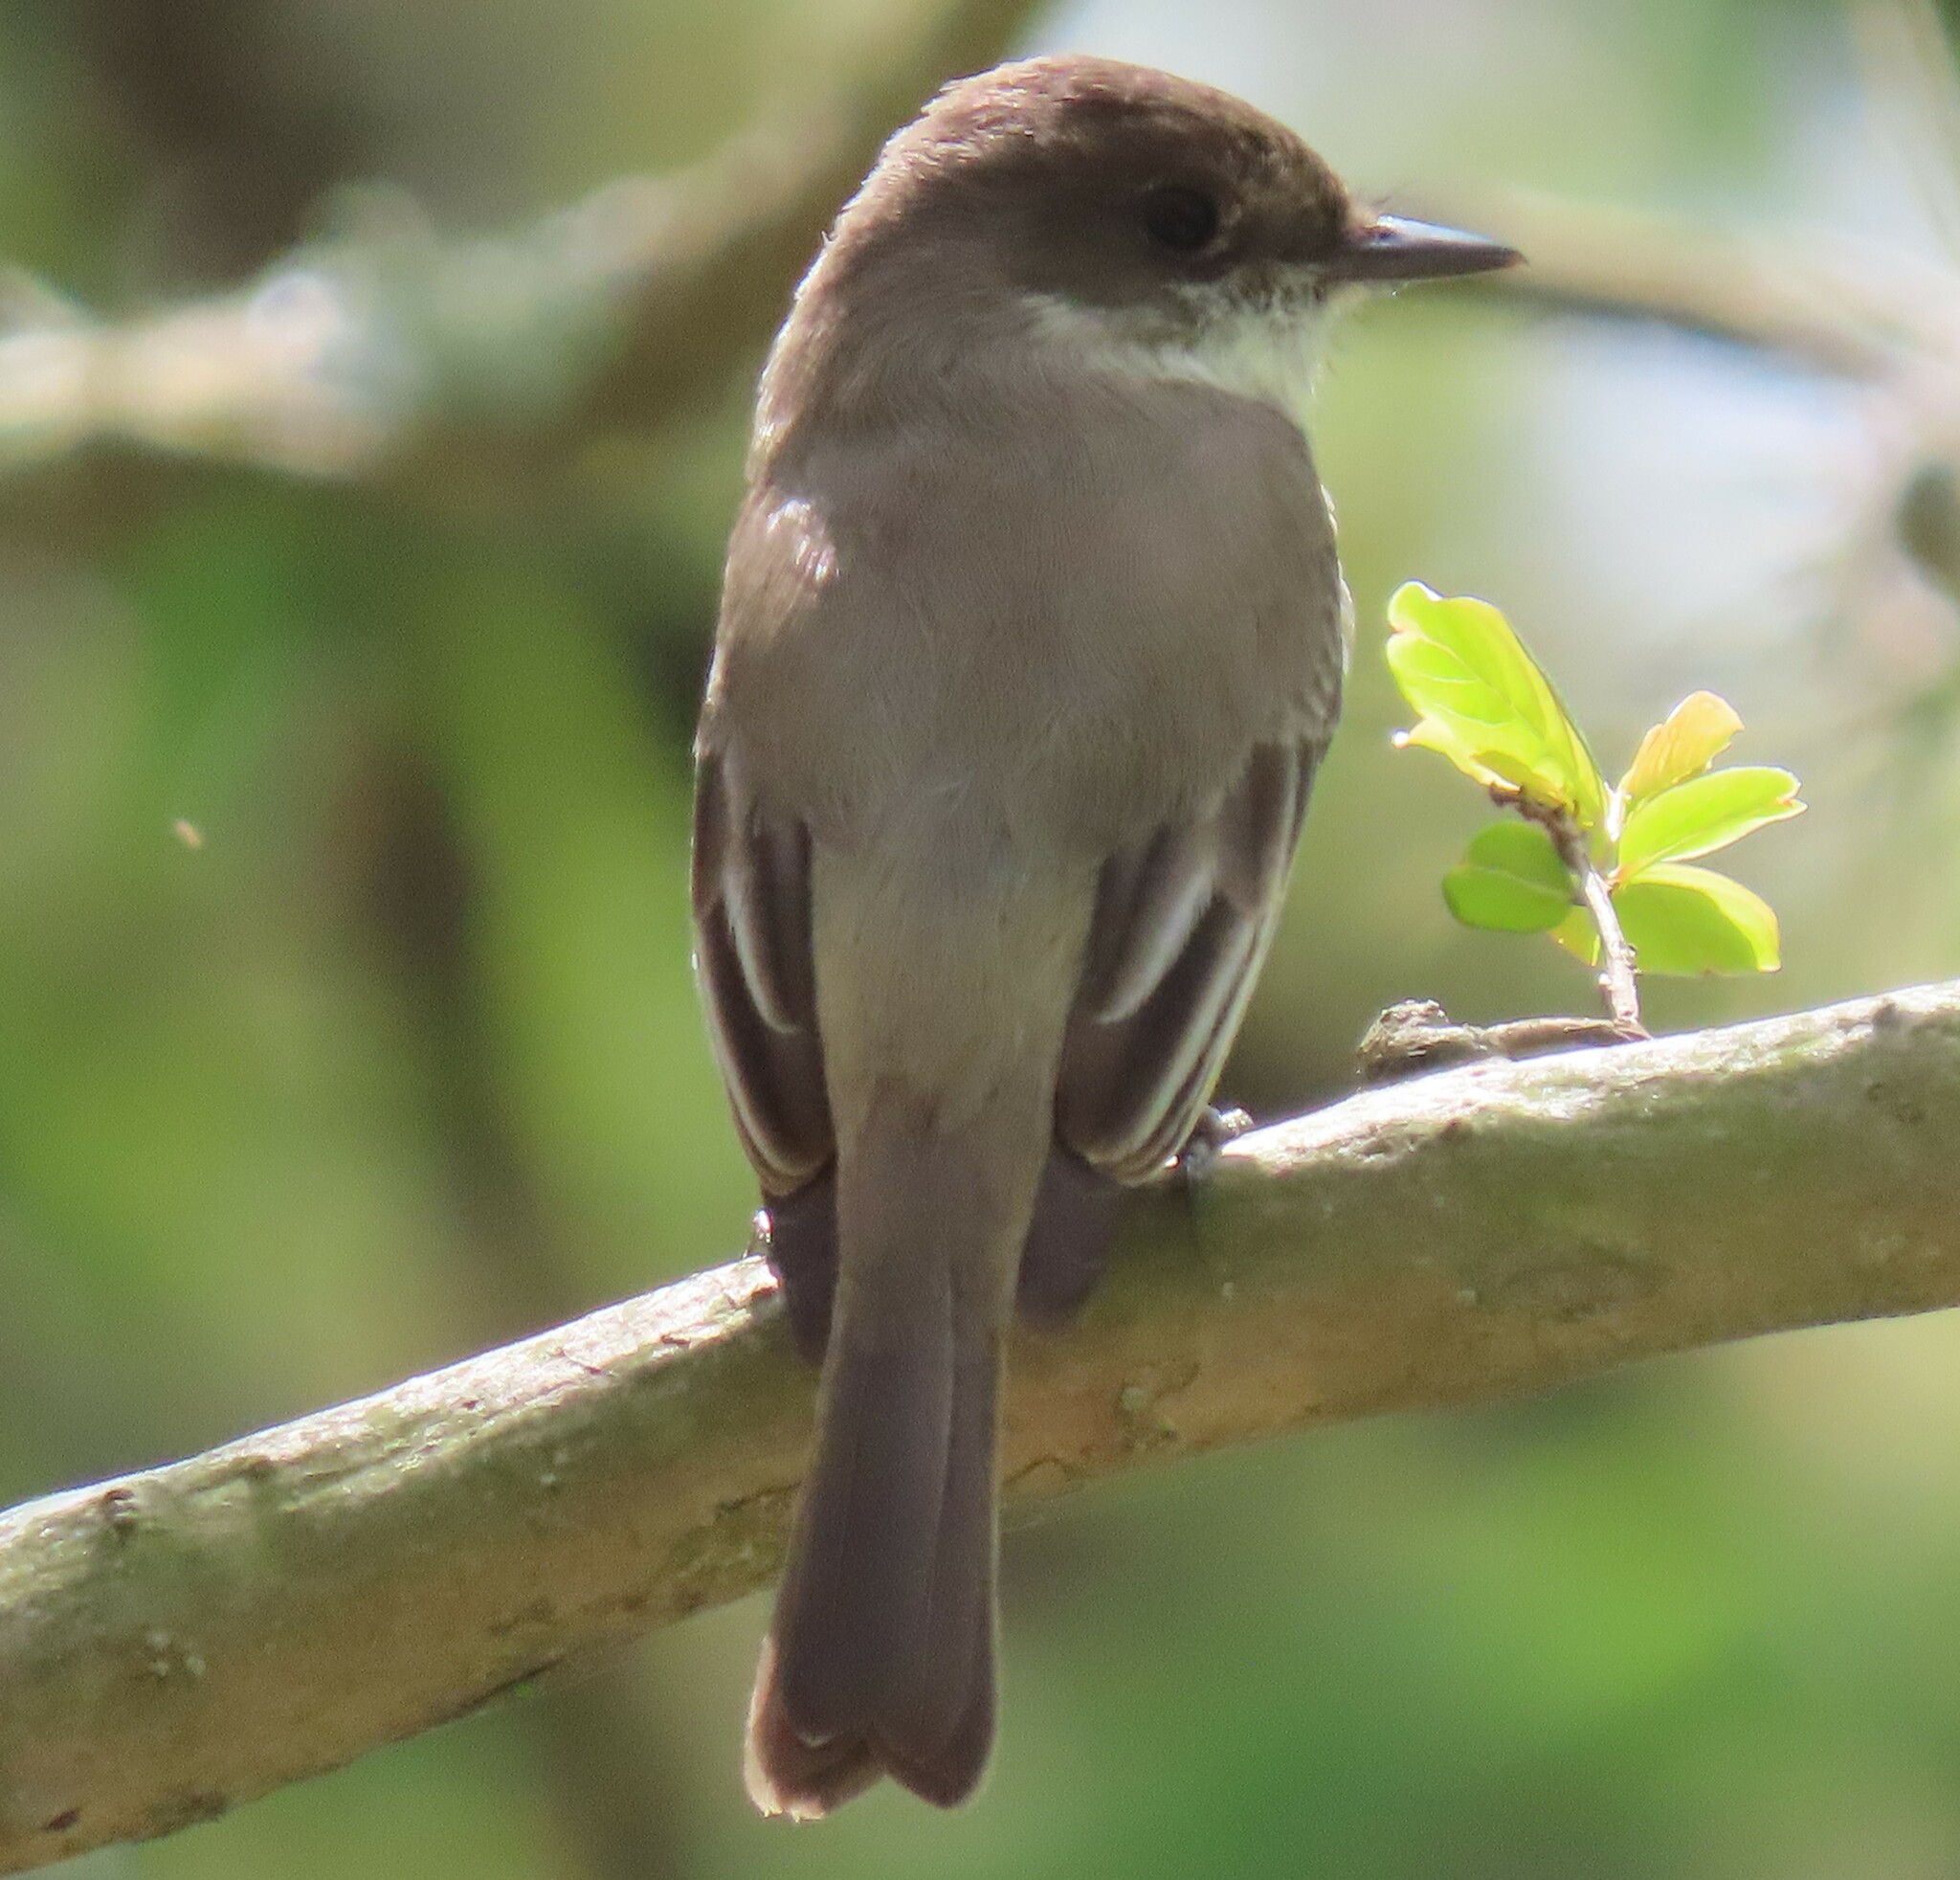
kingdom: Animalia
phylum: Chordata
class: Aves
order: Passeriformes
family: Tyrannidae
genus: Sayornis
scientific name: Sayornis phoebe
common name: Eastern phoebe
